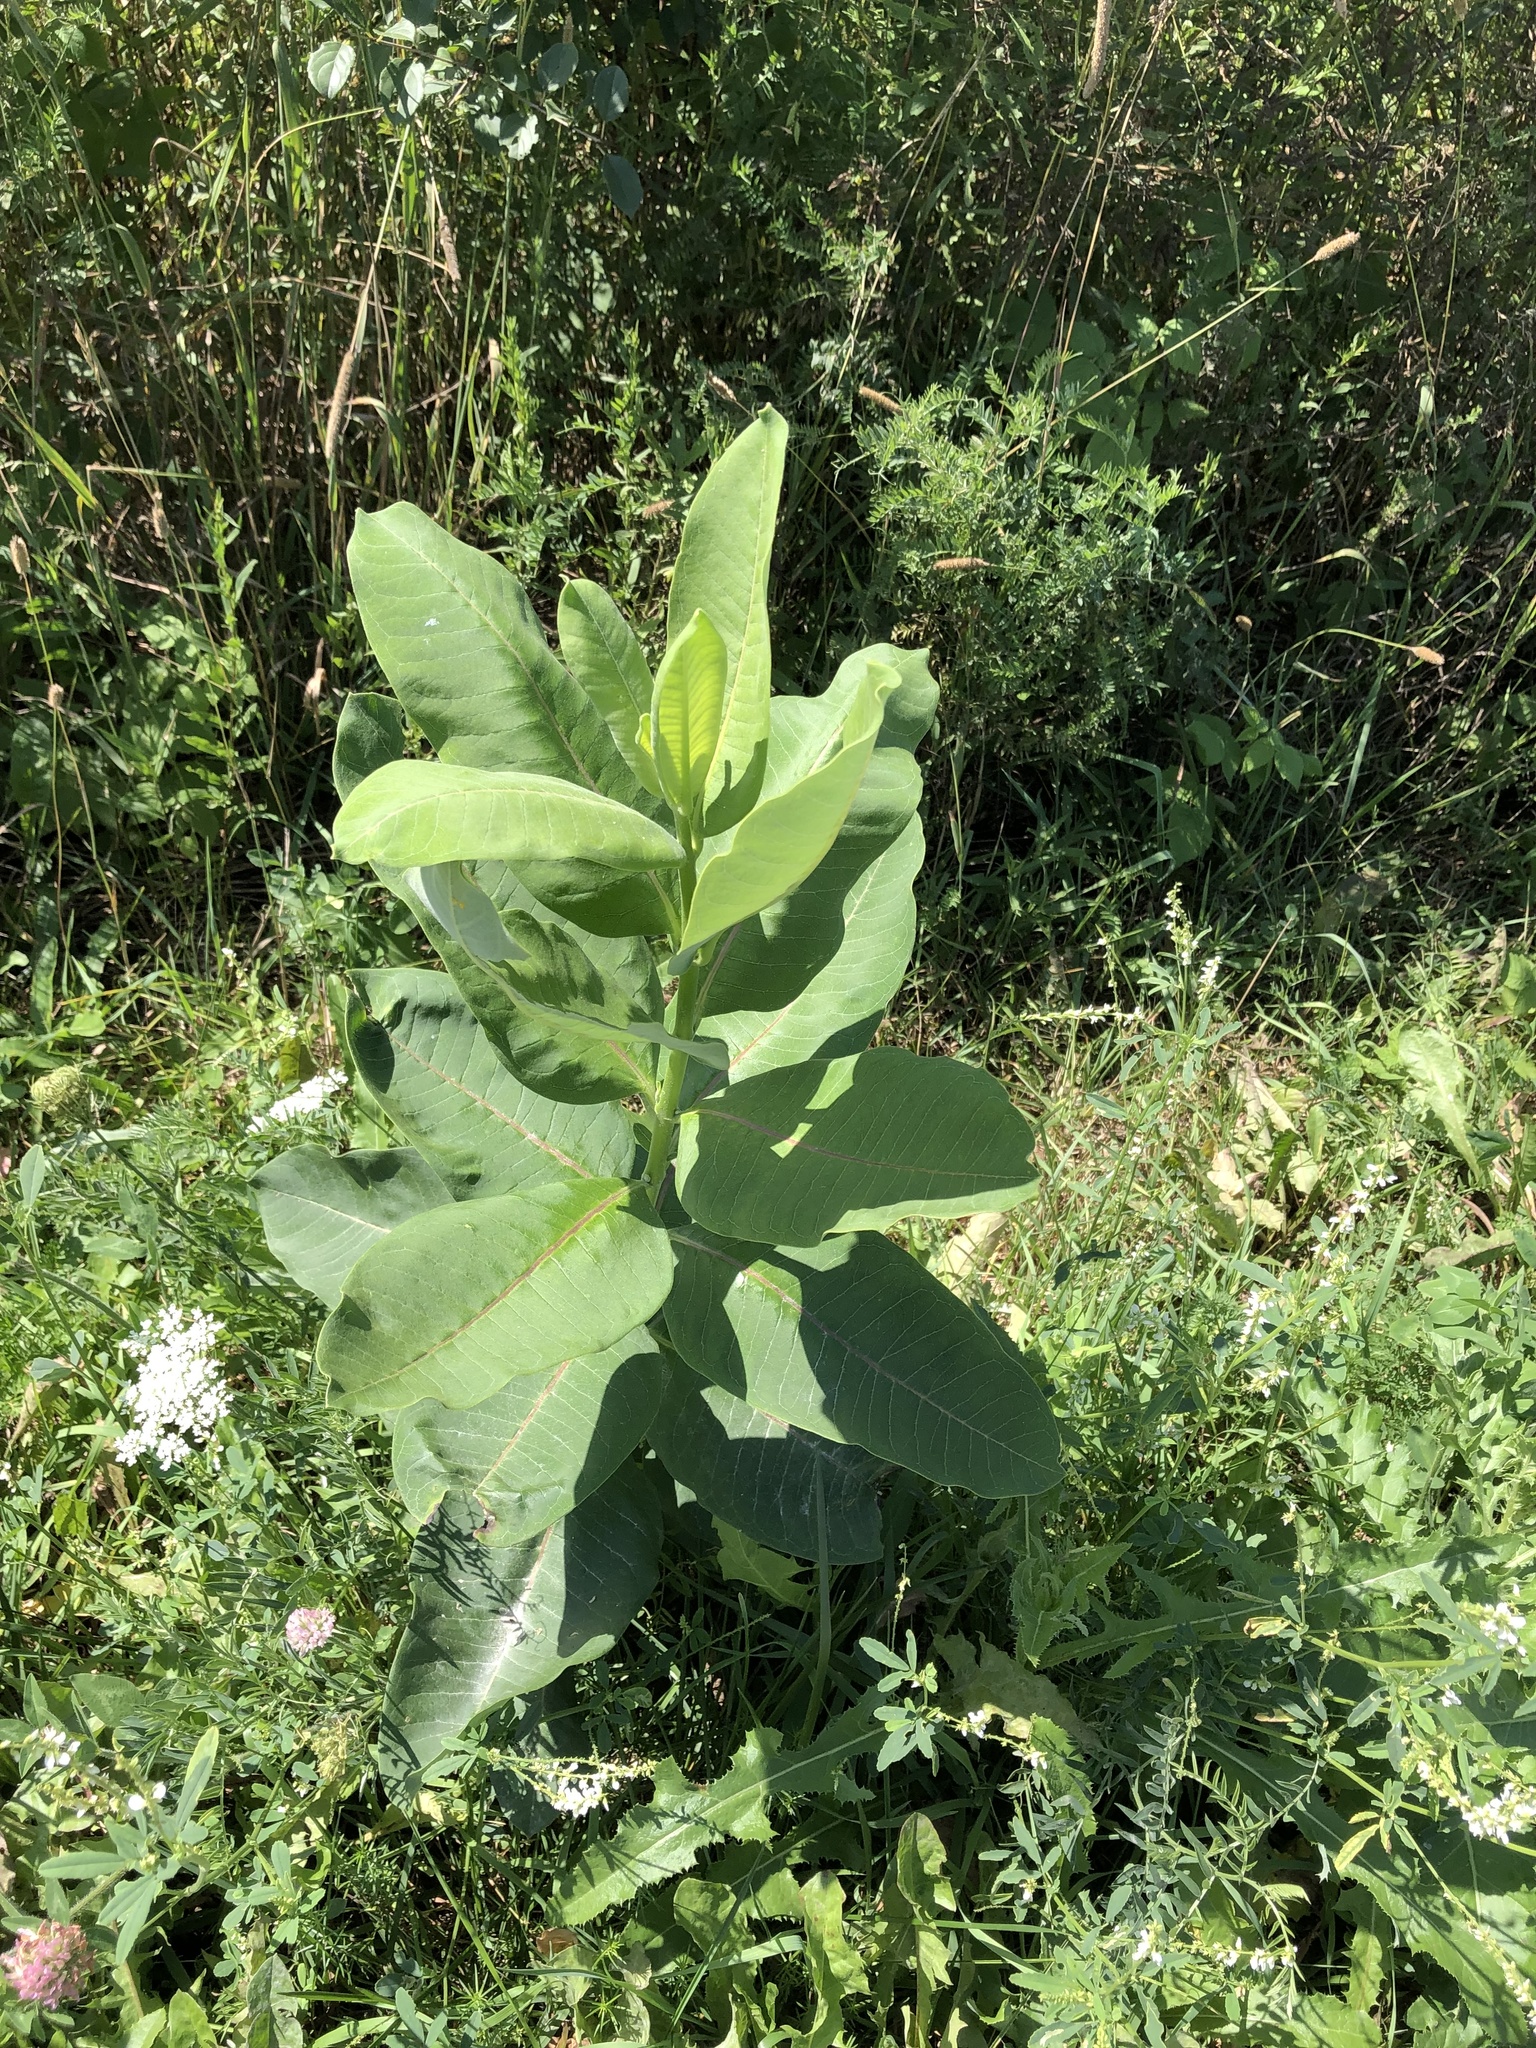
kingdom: Plantae
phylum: Tracheophyta
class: Magnoliopsida
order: Gentianales
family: Apocynaceae
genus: Asclepias
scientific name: Asclepias syriaca
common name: Common milkweed
